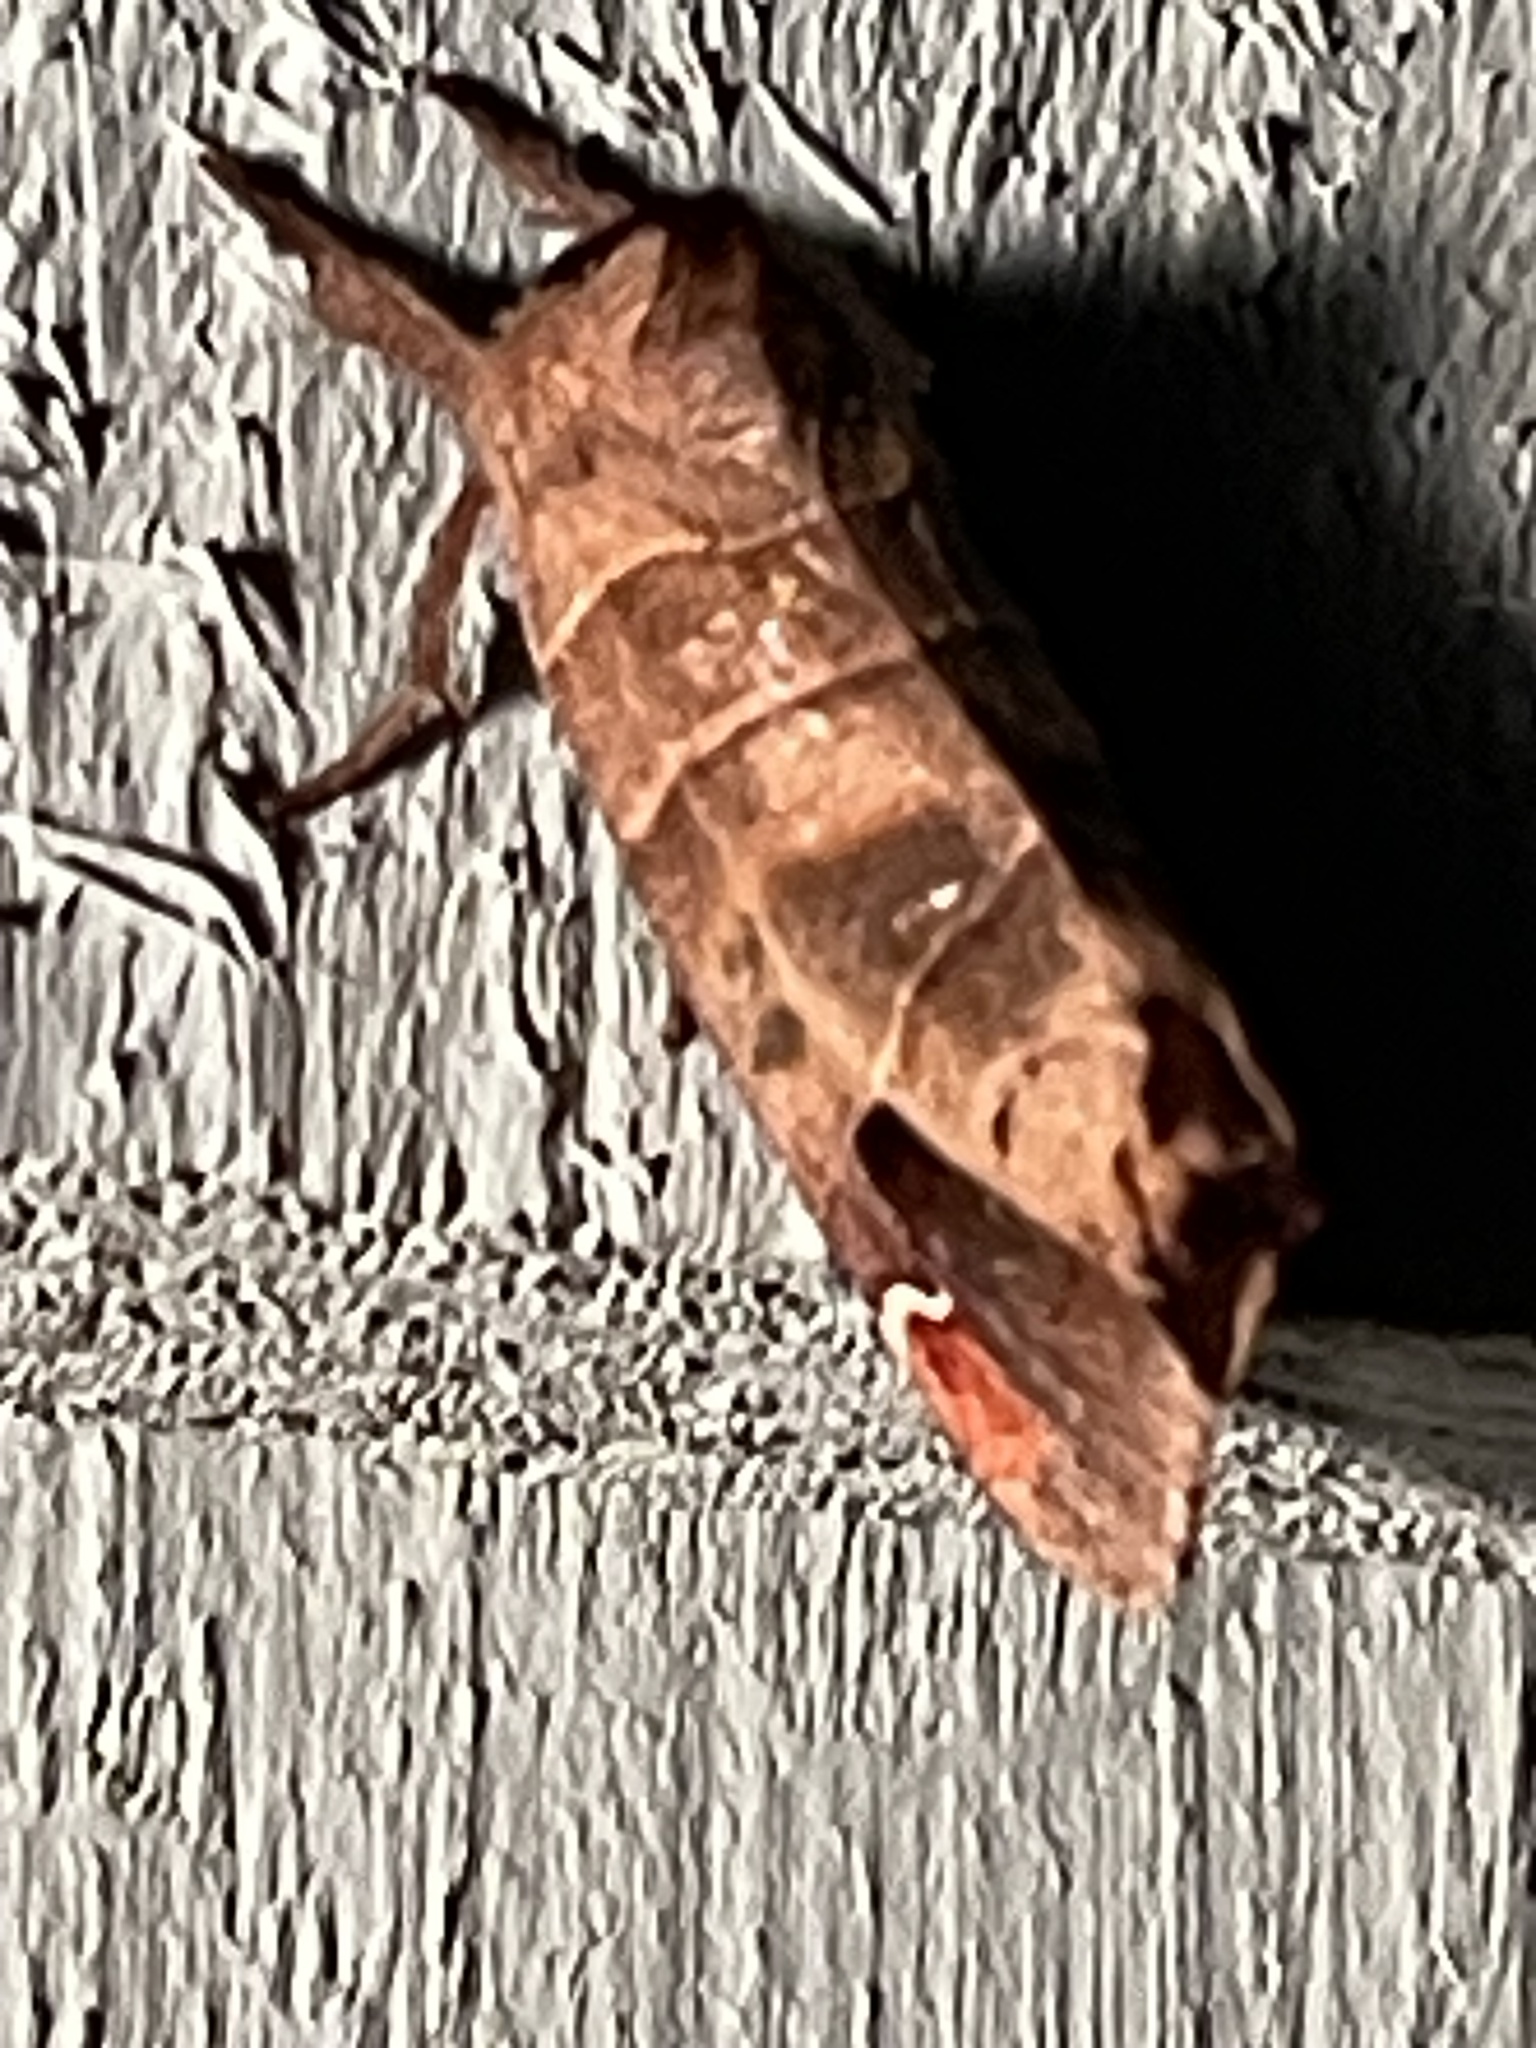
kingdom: Animalia
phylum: Arthropoda
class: Insecta
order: Lepidoptera
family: Notodontidae
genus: Clostera
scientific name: Clostera albosigma
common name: Sigmoid prominent
